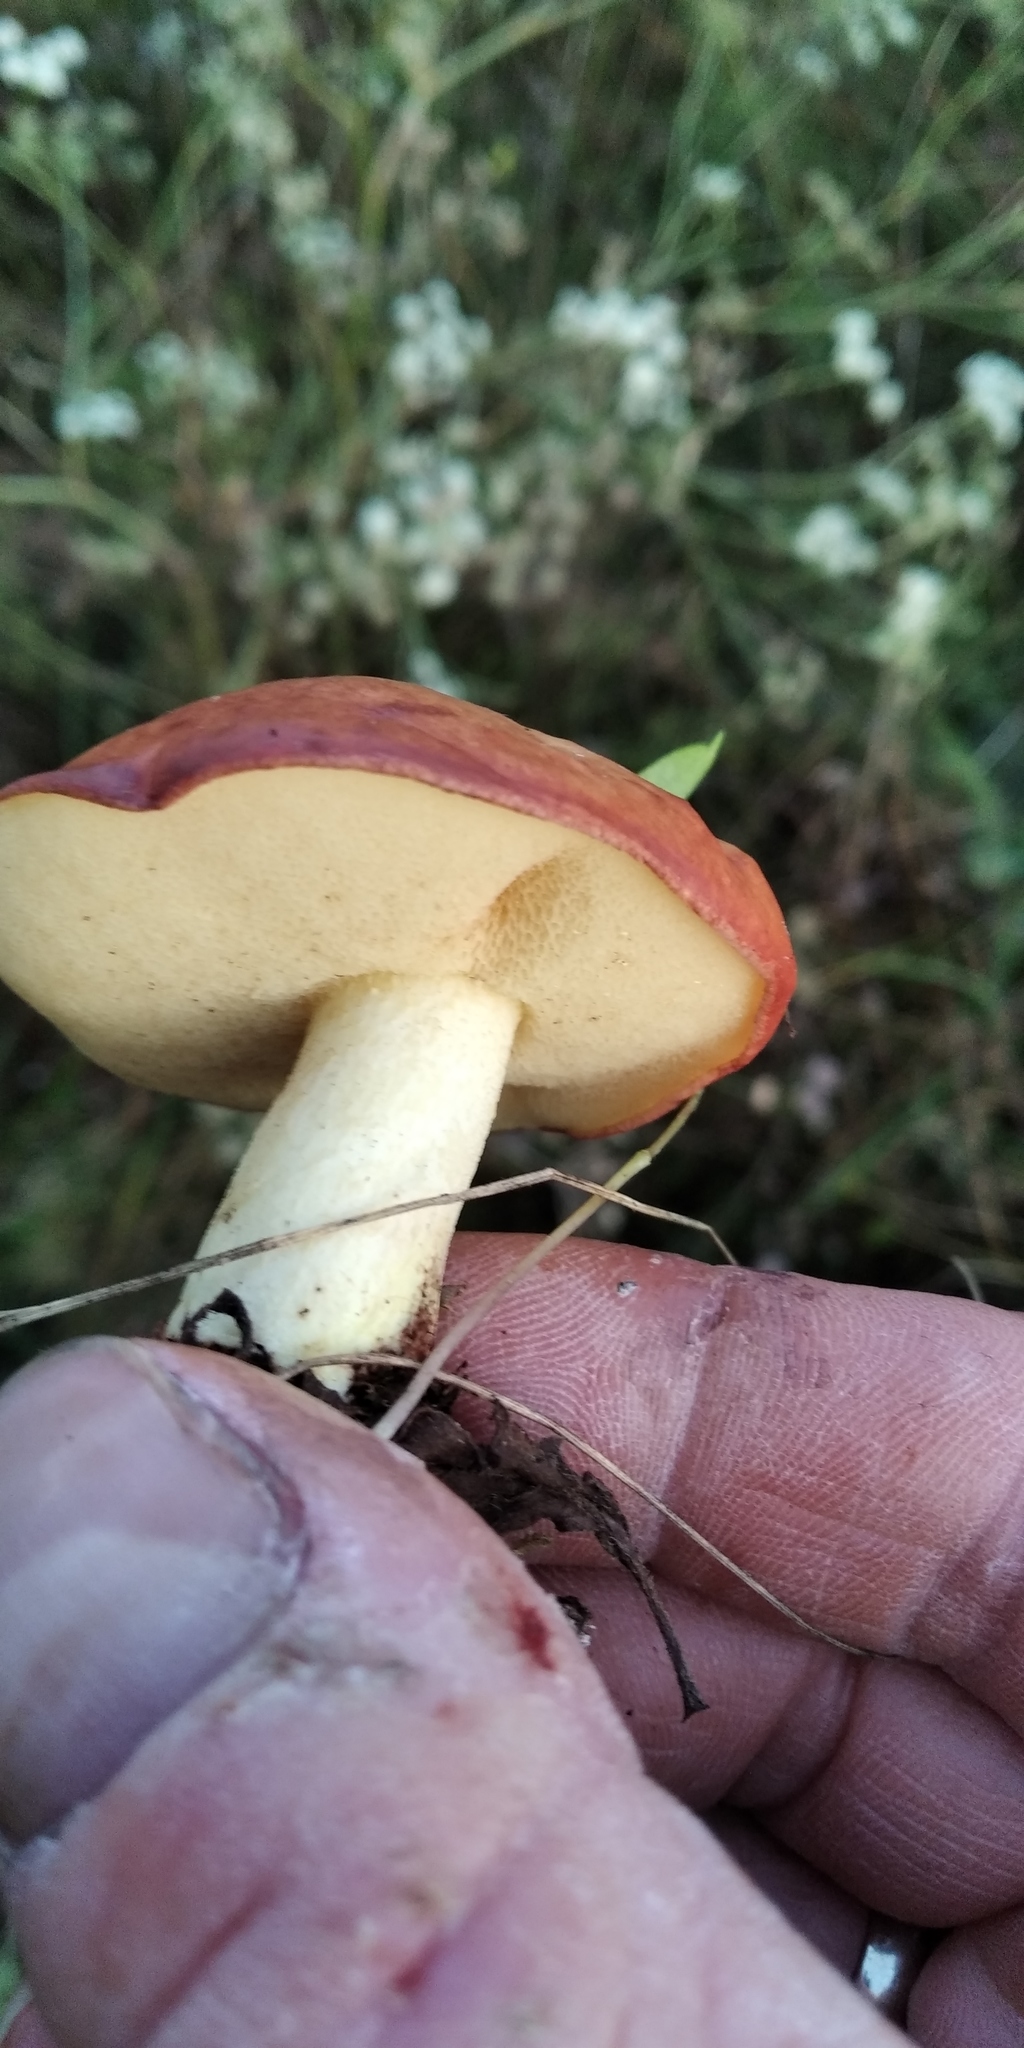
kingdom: Fungi
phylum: Basidiomycota
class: Agaricomycetes
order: Boletales
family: Suillaceae
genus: Suillus
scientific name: Suillus granulatus
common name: Weeping bolete
